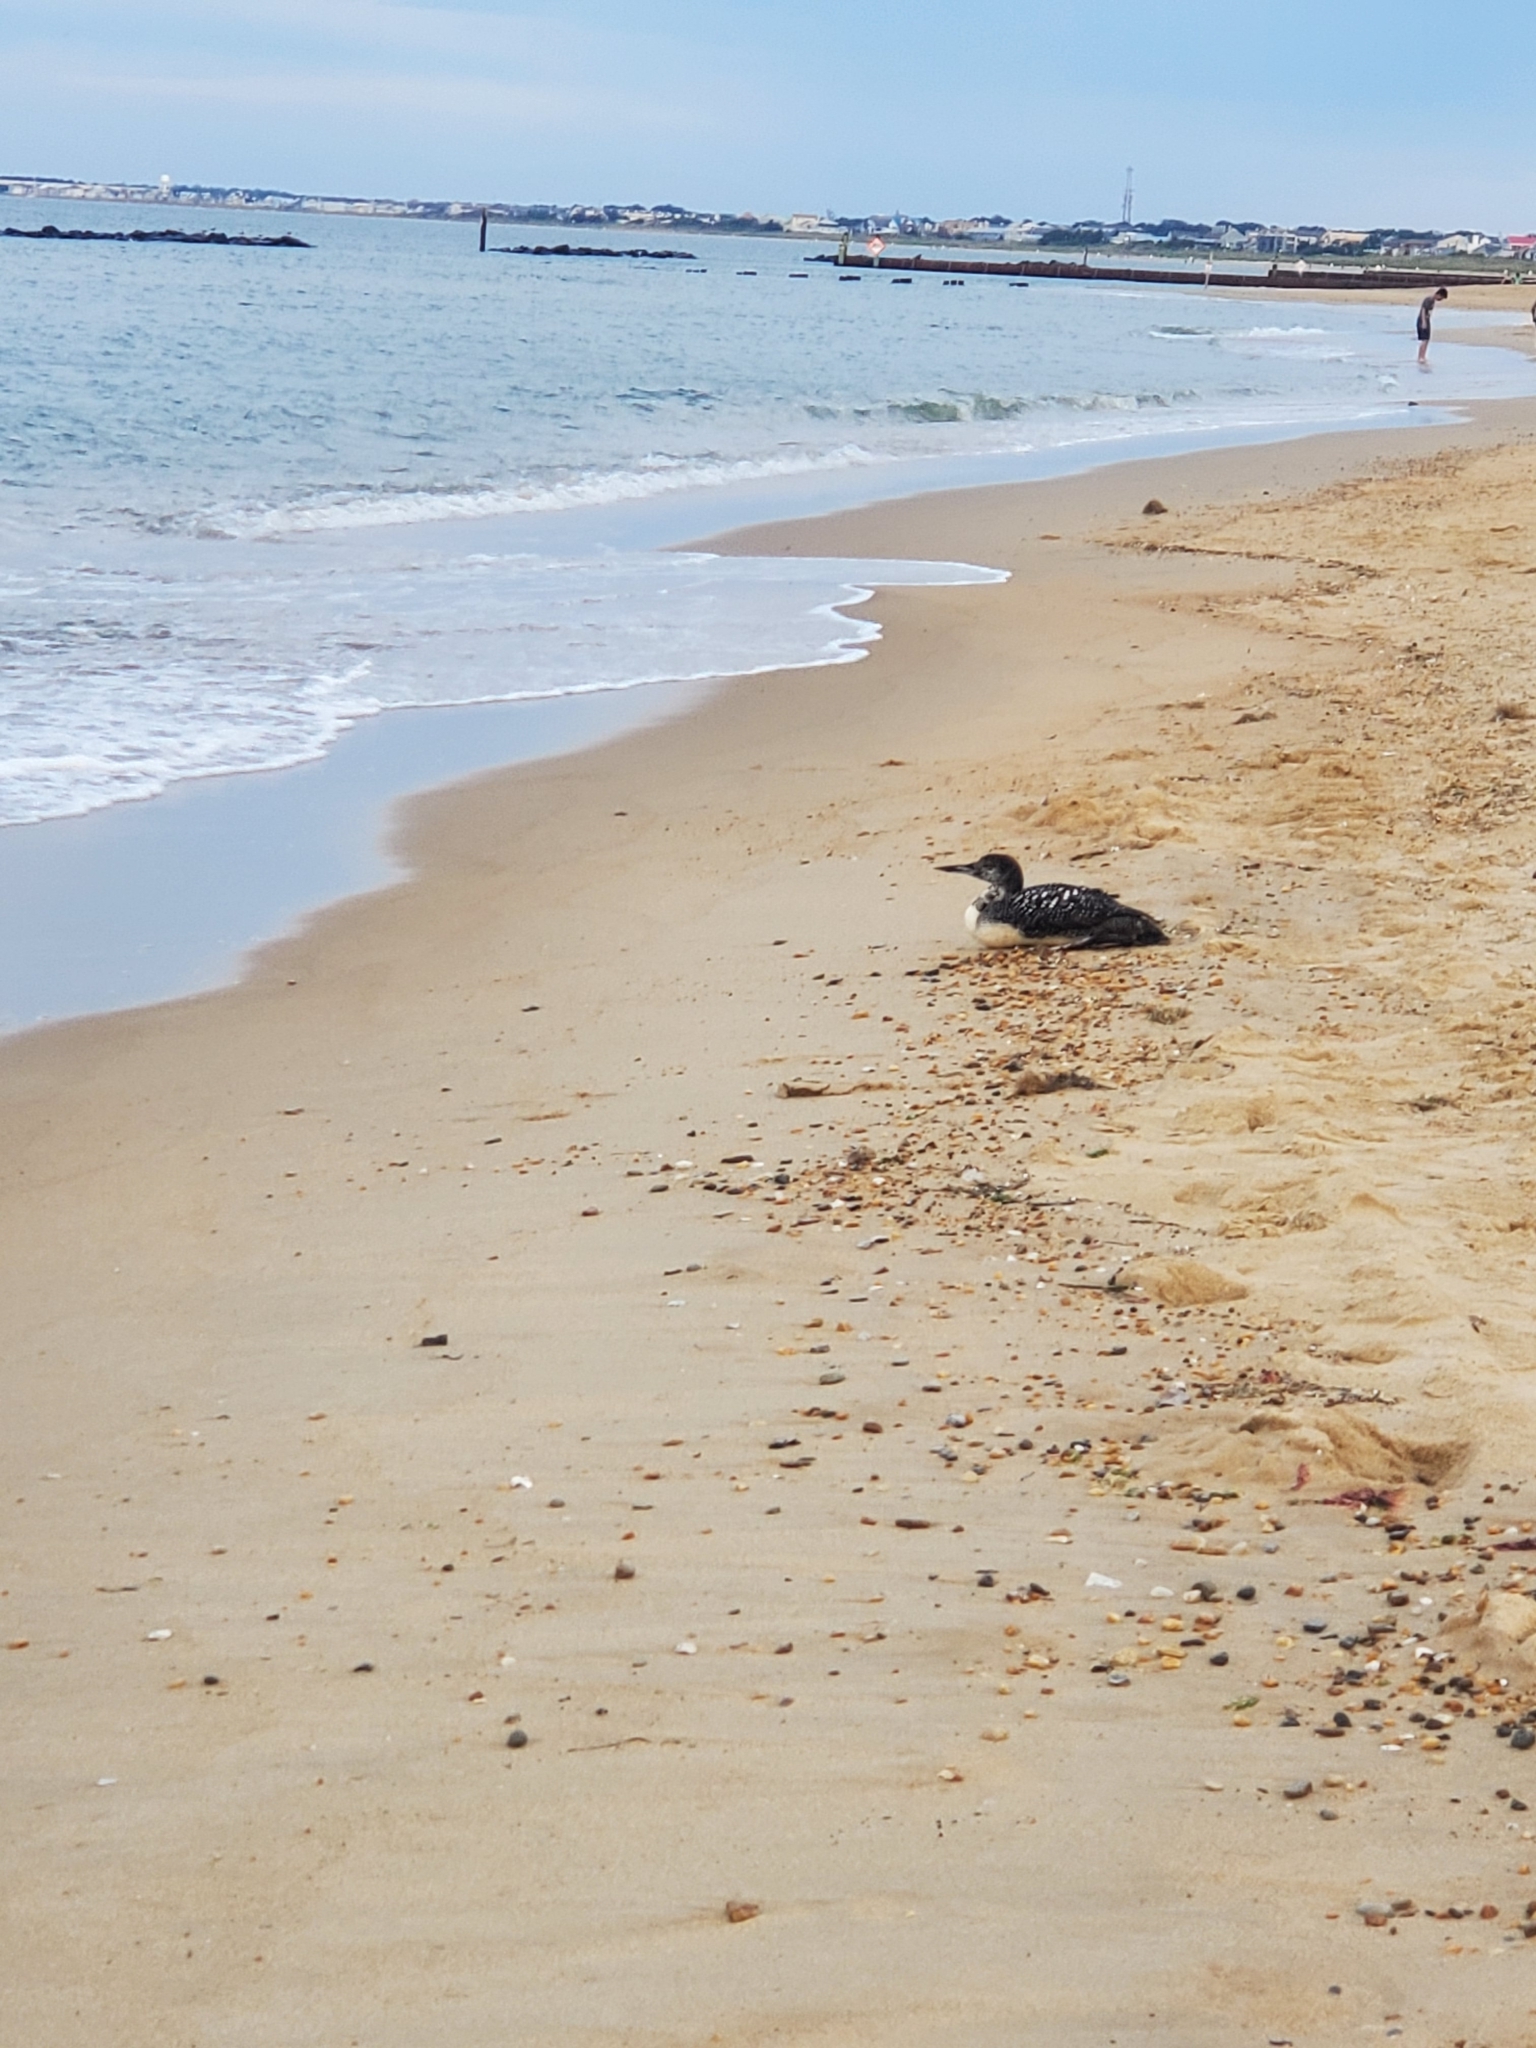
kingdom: Animalia
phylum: Chordata
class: Aves
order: Gaviiformes
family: Gaviidae
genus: Gavia
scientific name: Gavia immer
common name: Common loon
